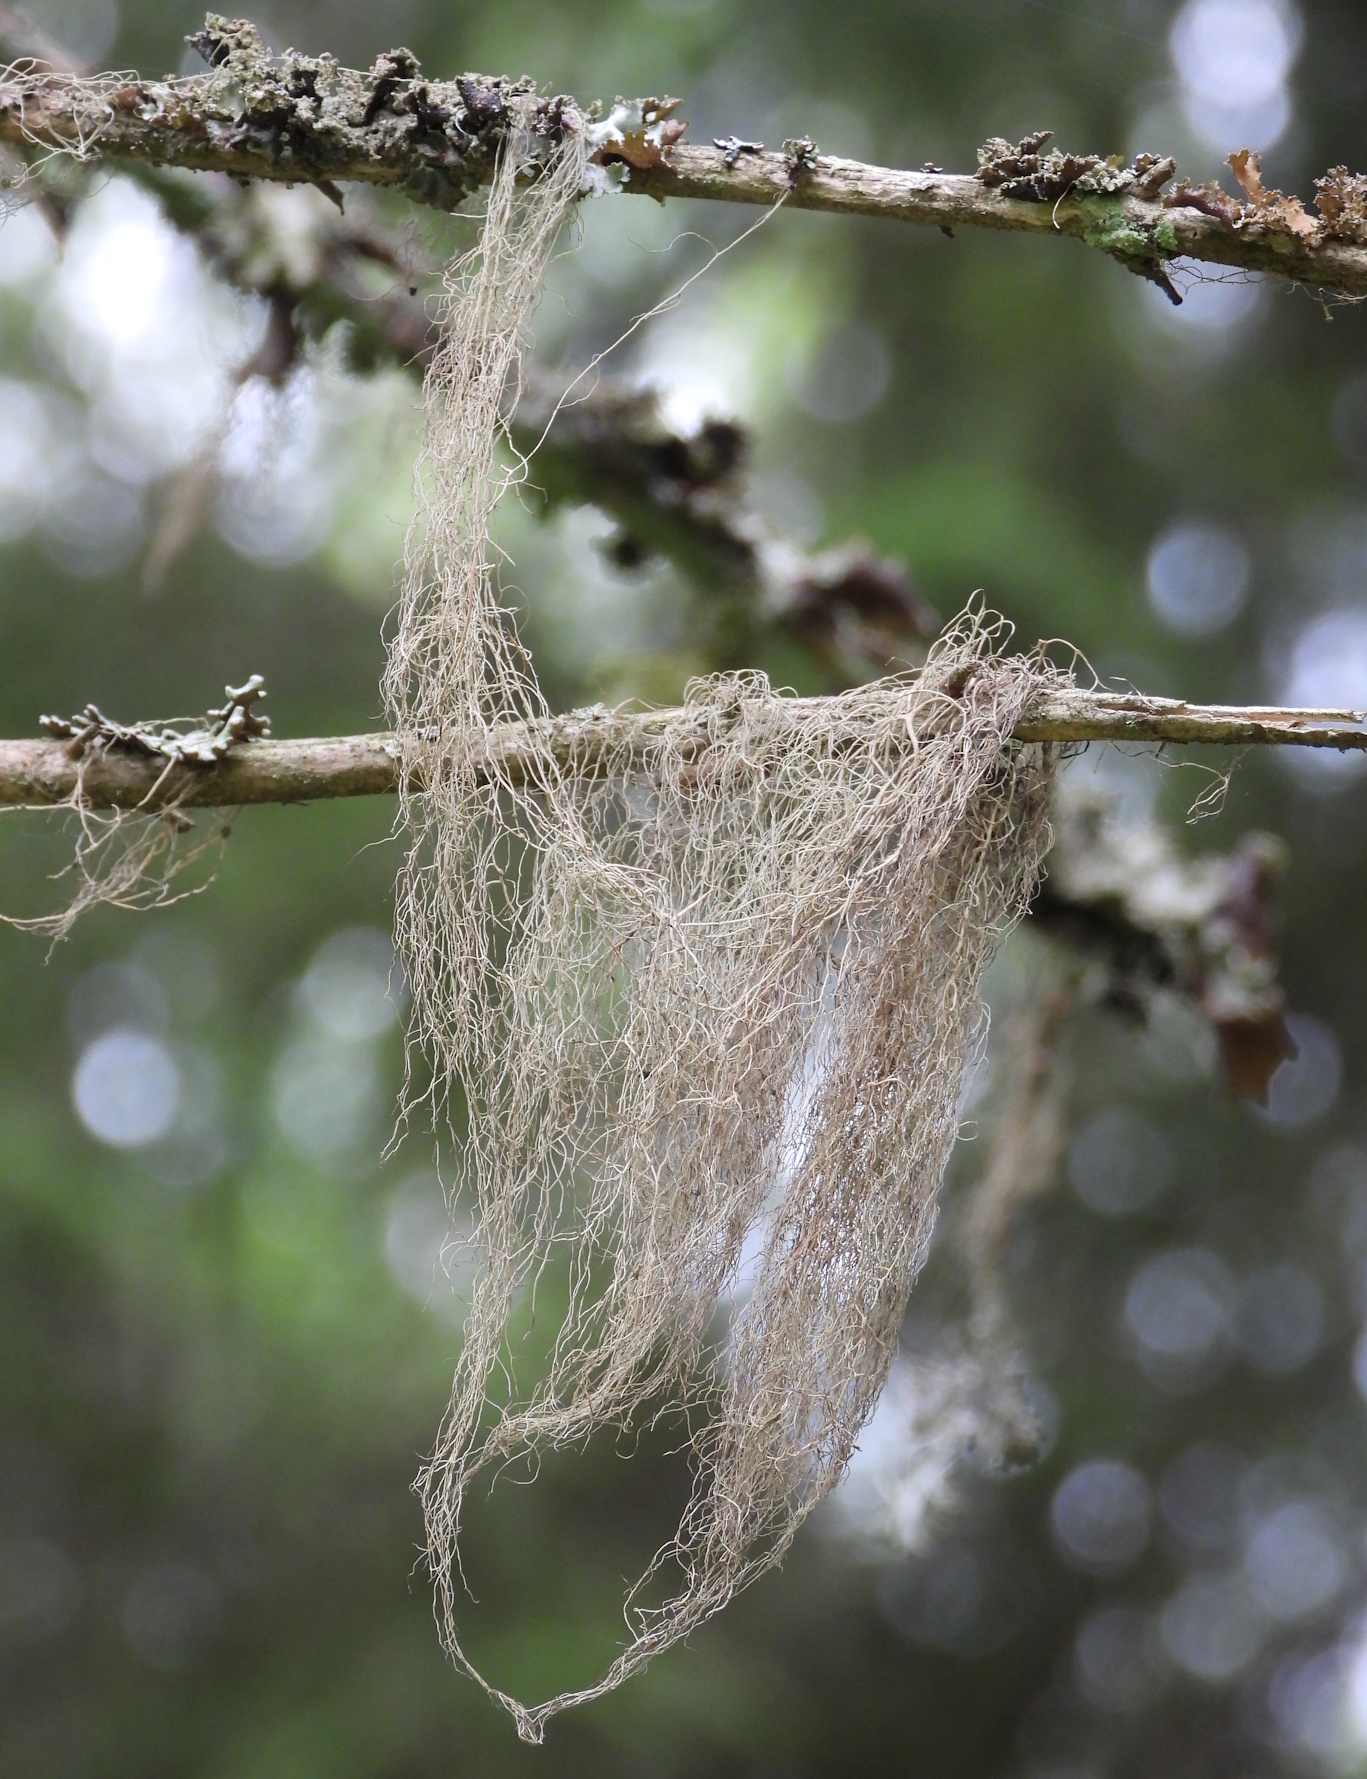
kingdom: Fungi
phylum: Ascomycota
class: Lecanoromycetes
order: Lecanorales
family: Parmeliaceae
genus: Bryoria
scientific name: Bryoria fuscescens
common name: Pale-footed horsehair lichen
